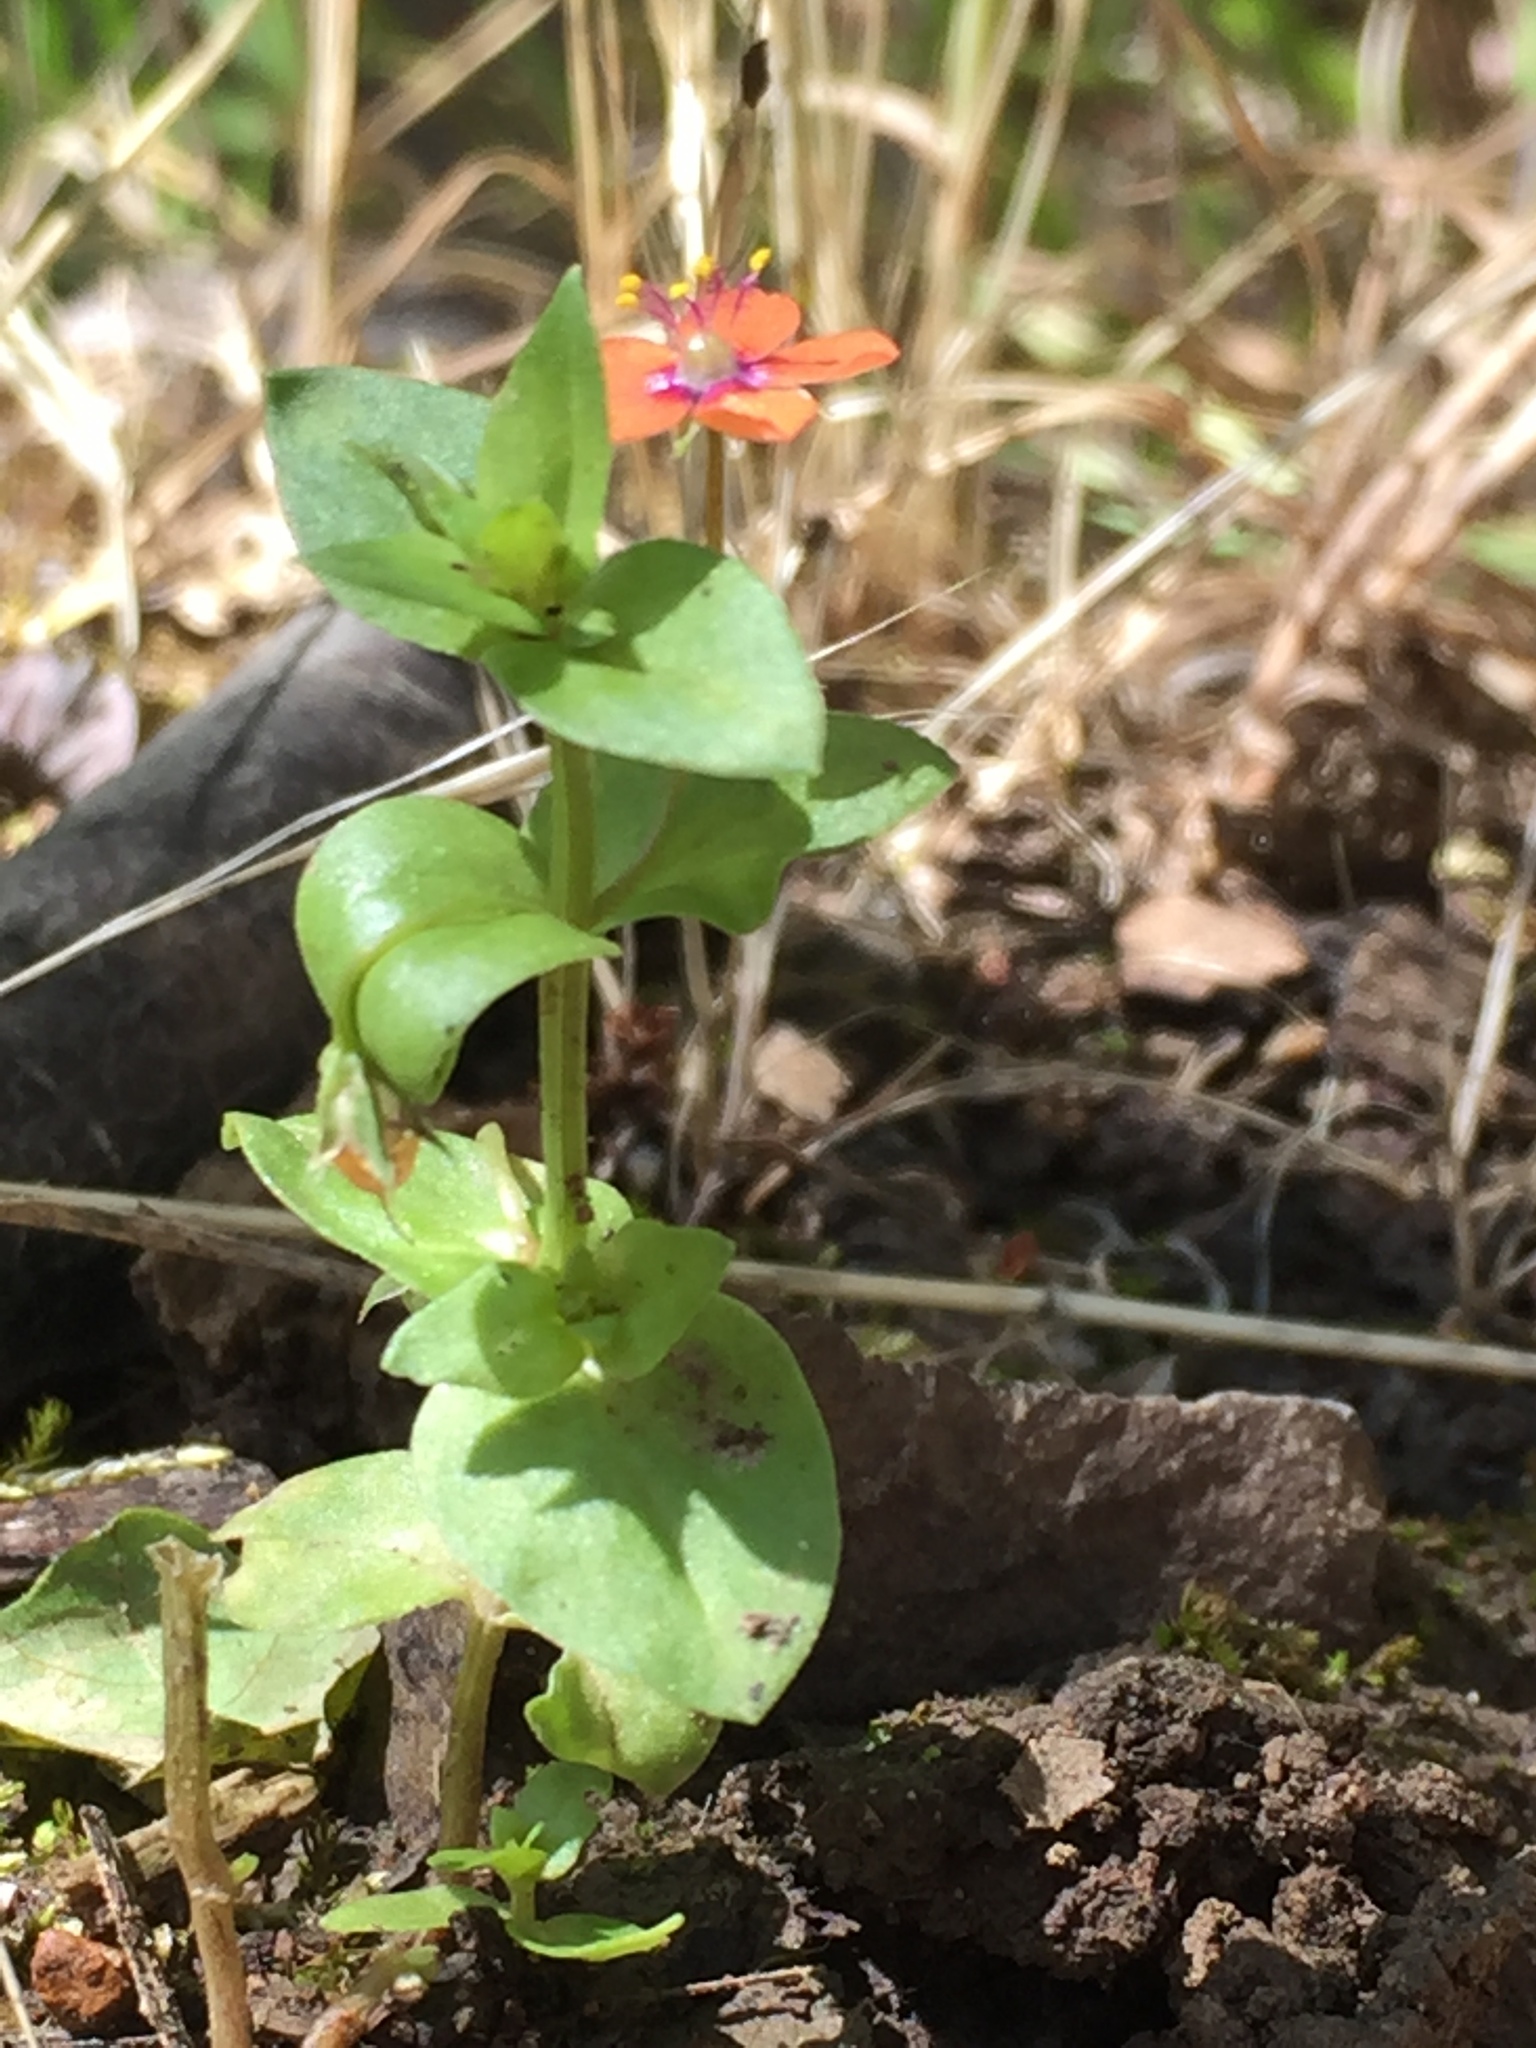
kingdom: Plantae
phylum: Tracheophyta
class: Magnoliopsida
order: Ericales
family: Primulaceae
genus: Lysimachia
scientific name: Lysimachia arvensis
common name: Scarlet pimpernel
